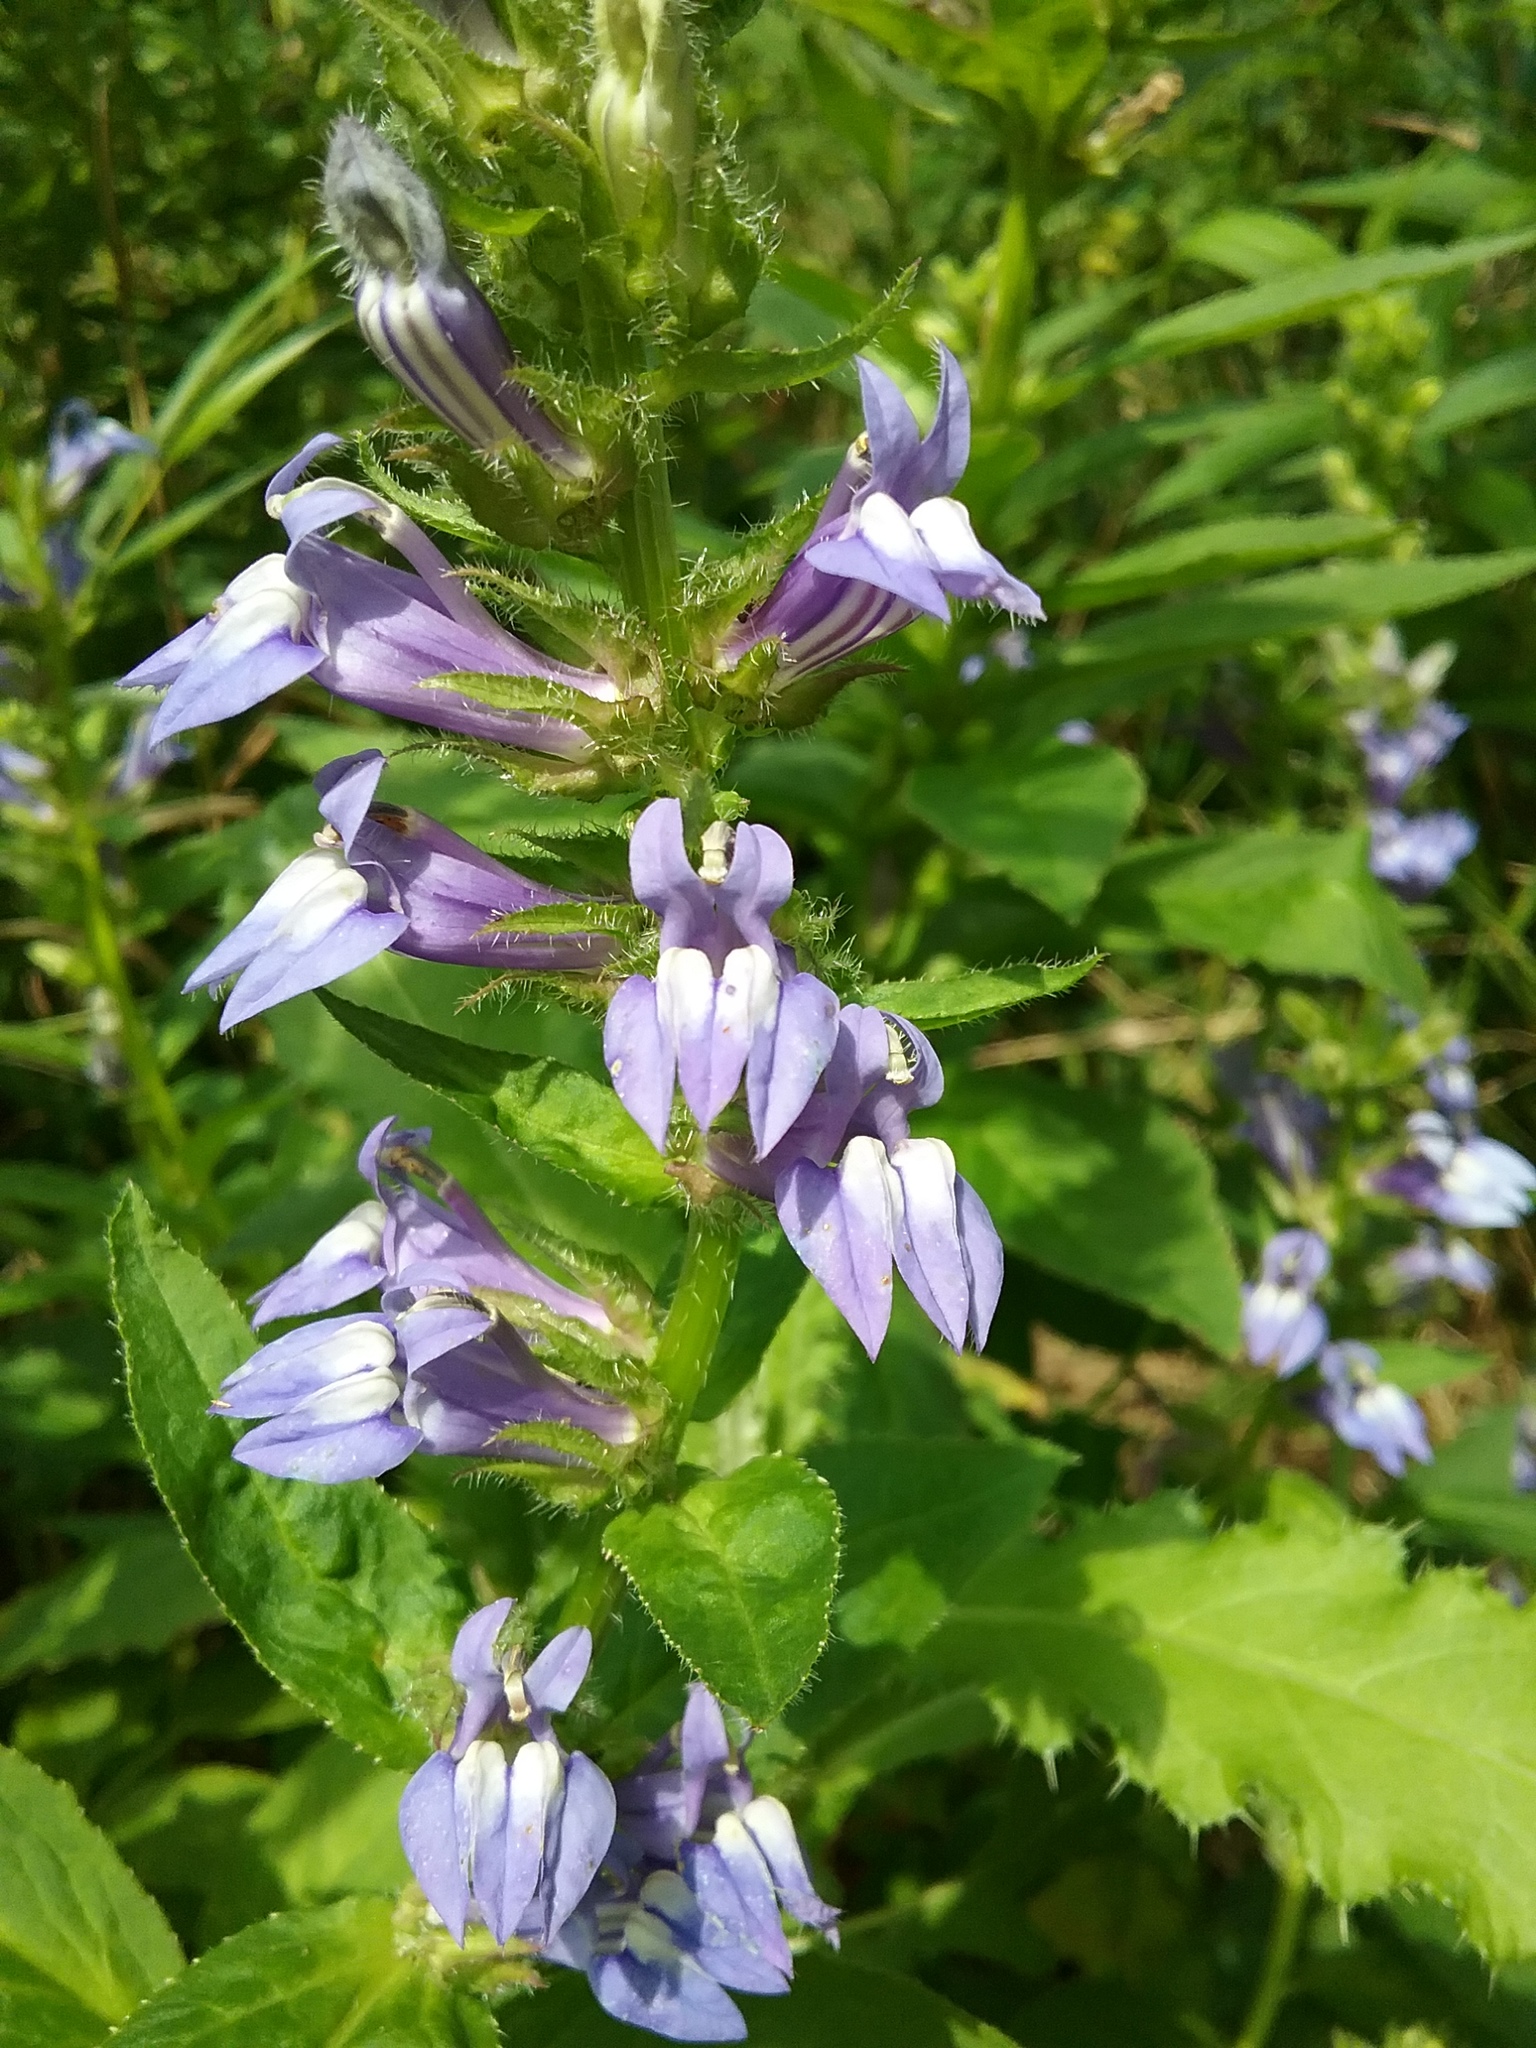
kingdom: Plantae
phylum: Tracheophyta
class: Magnoliopsida
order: Asterales
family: Campanulaceae
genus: Lobelia
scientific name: Lobelia siphilitica
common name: Great lobelia
